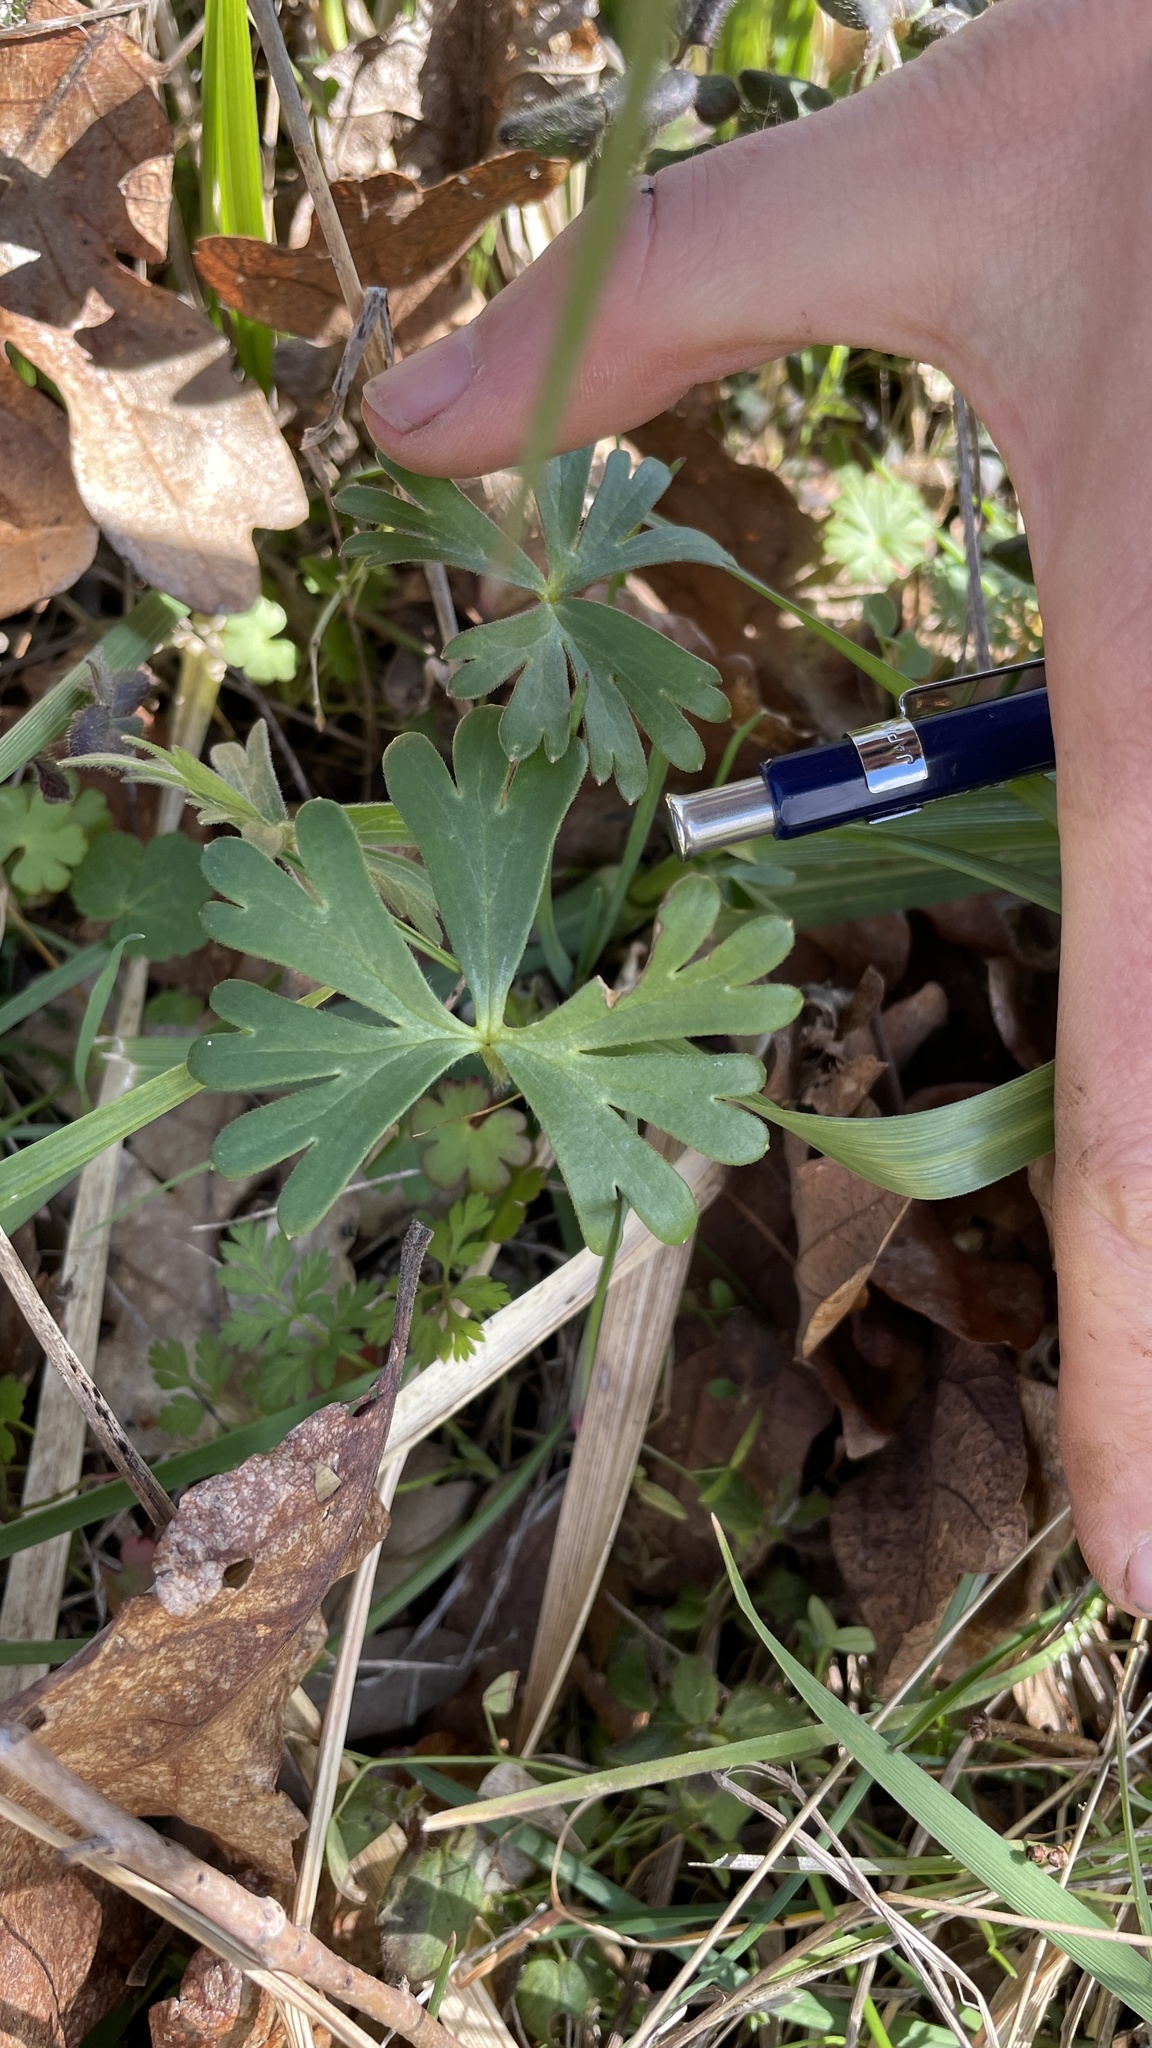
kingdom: Plantae
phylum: Tracheophyta
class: Magnoliopsida
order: Ranunculales
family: Ranunculaceae
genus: Delphinium
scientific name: Delphinium menziesii
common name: Menzies's larkspur
